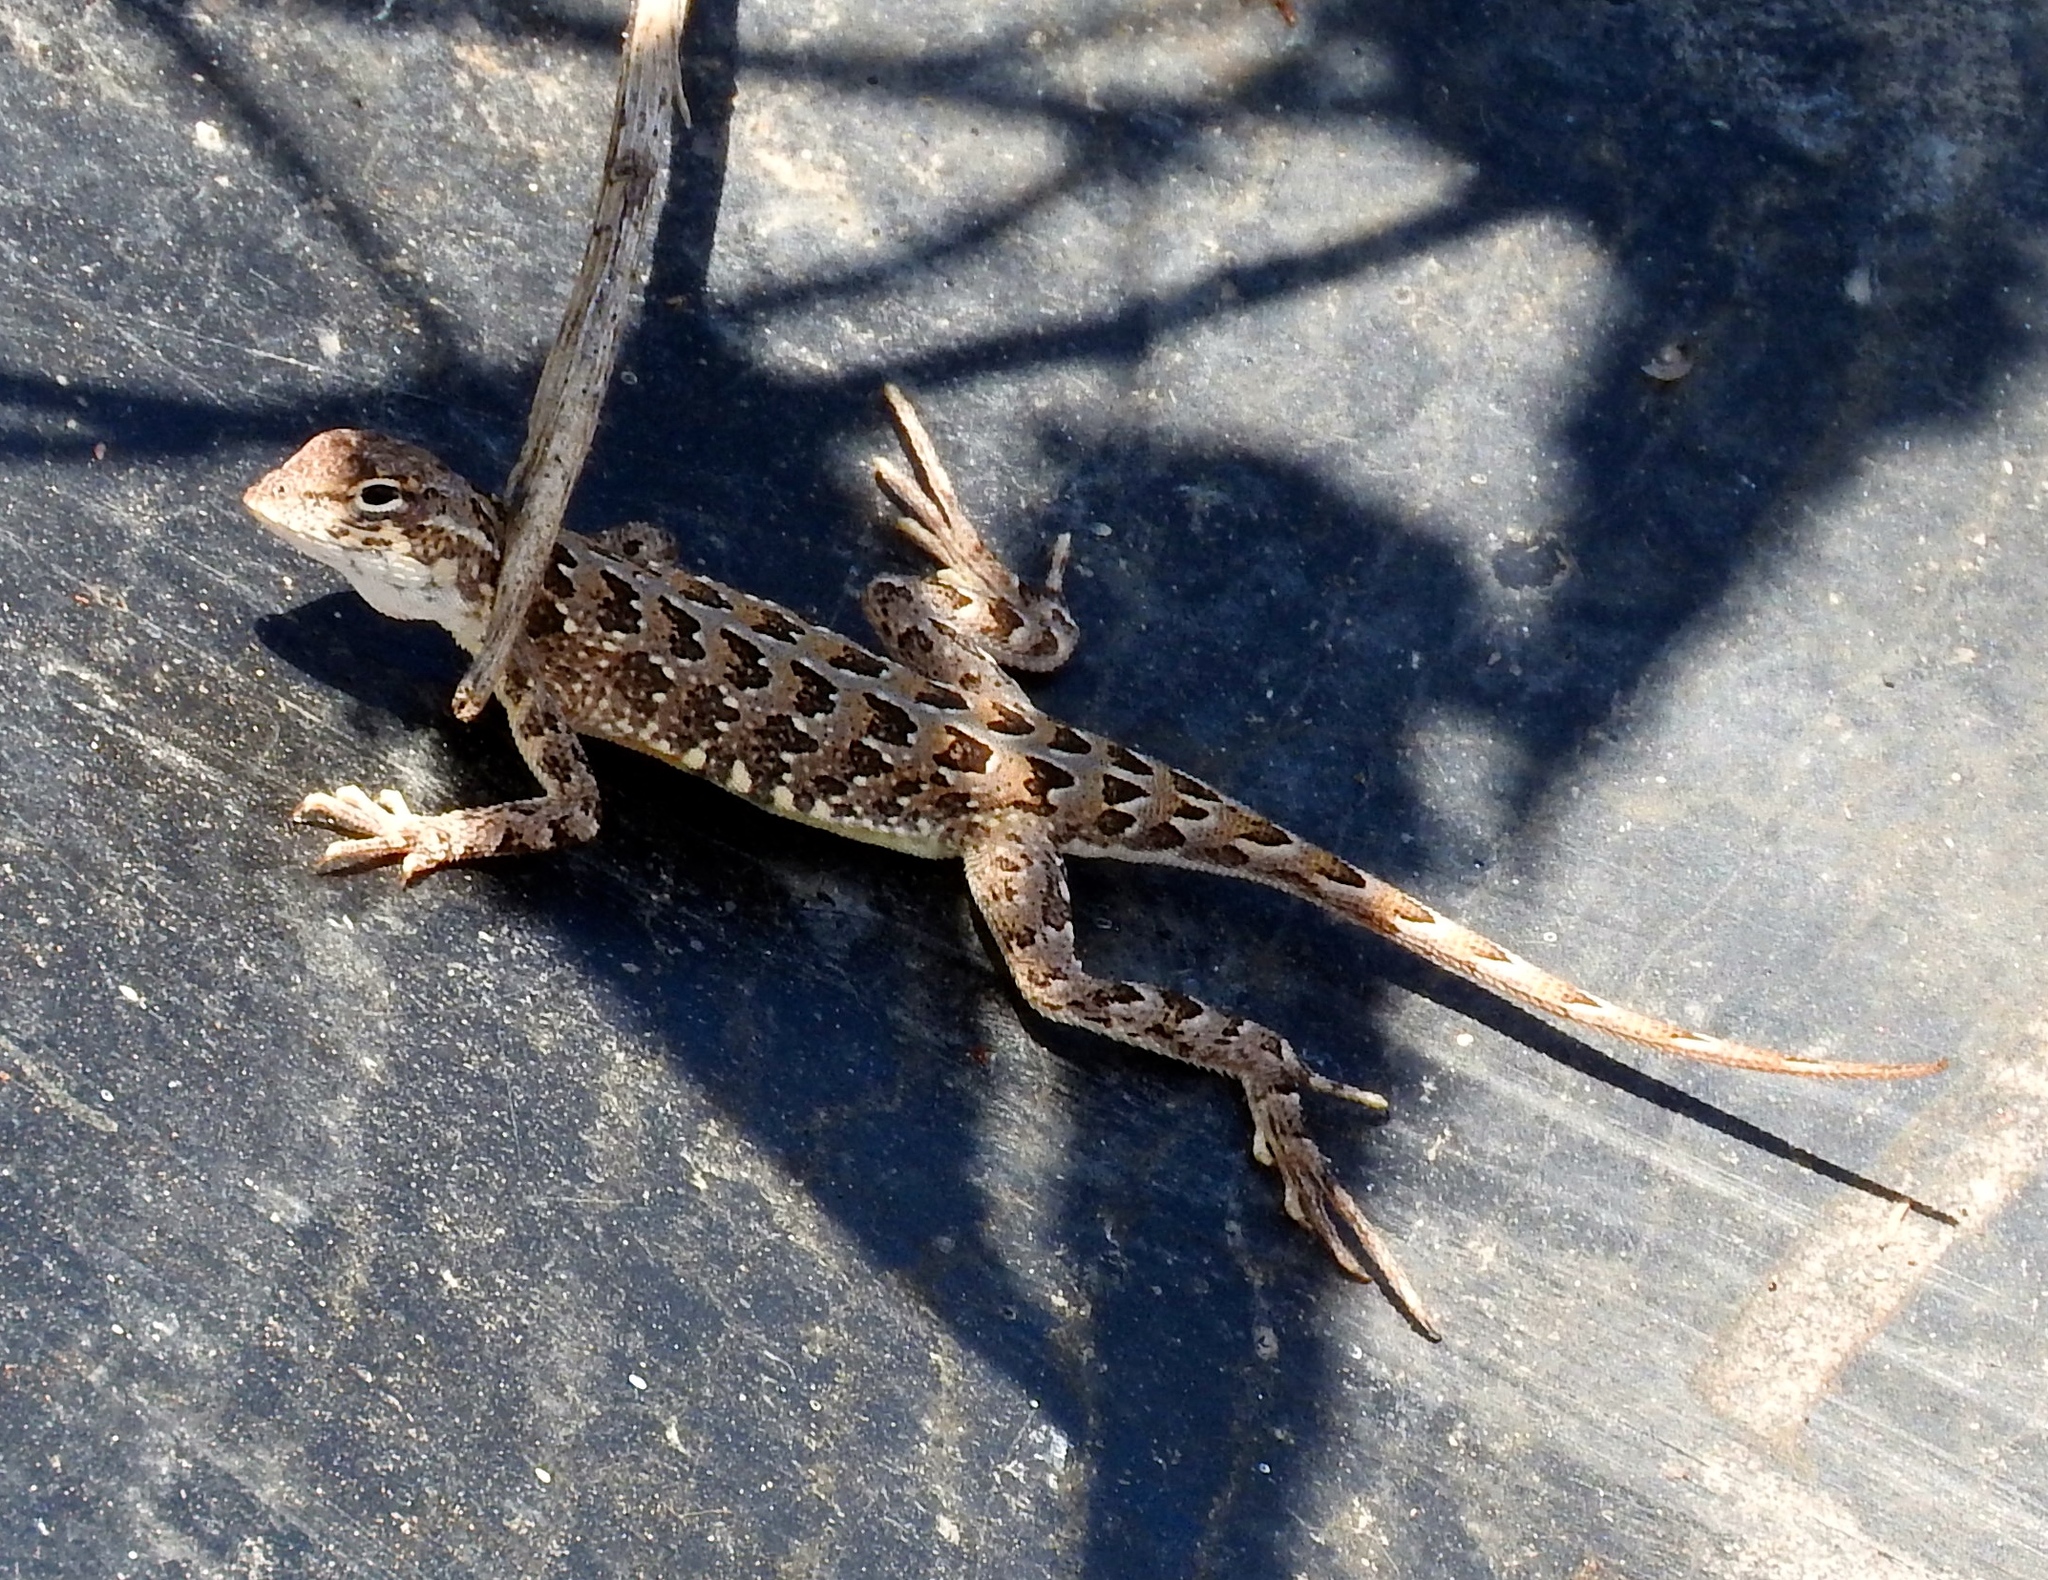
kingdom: Animalia
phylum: Chordata
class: Squamata
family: Phrynosomatidae
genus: Holbrookia
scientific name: Holbrookia
